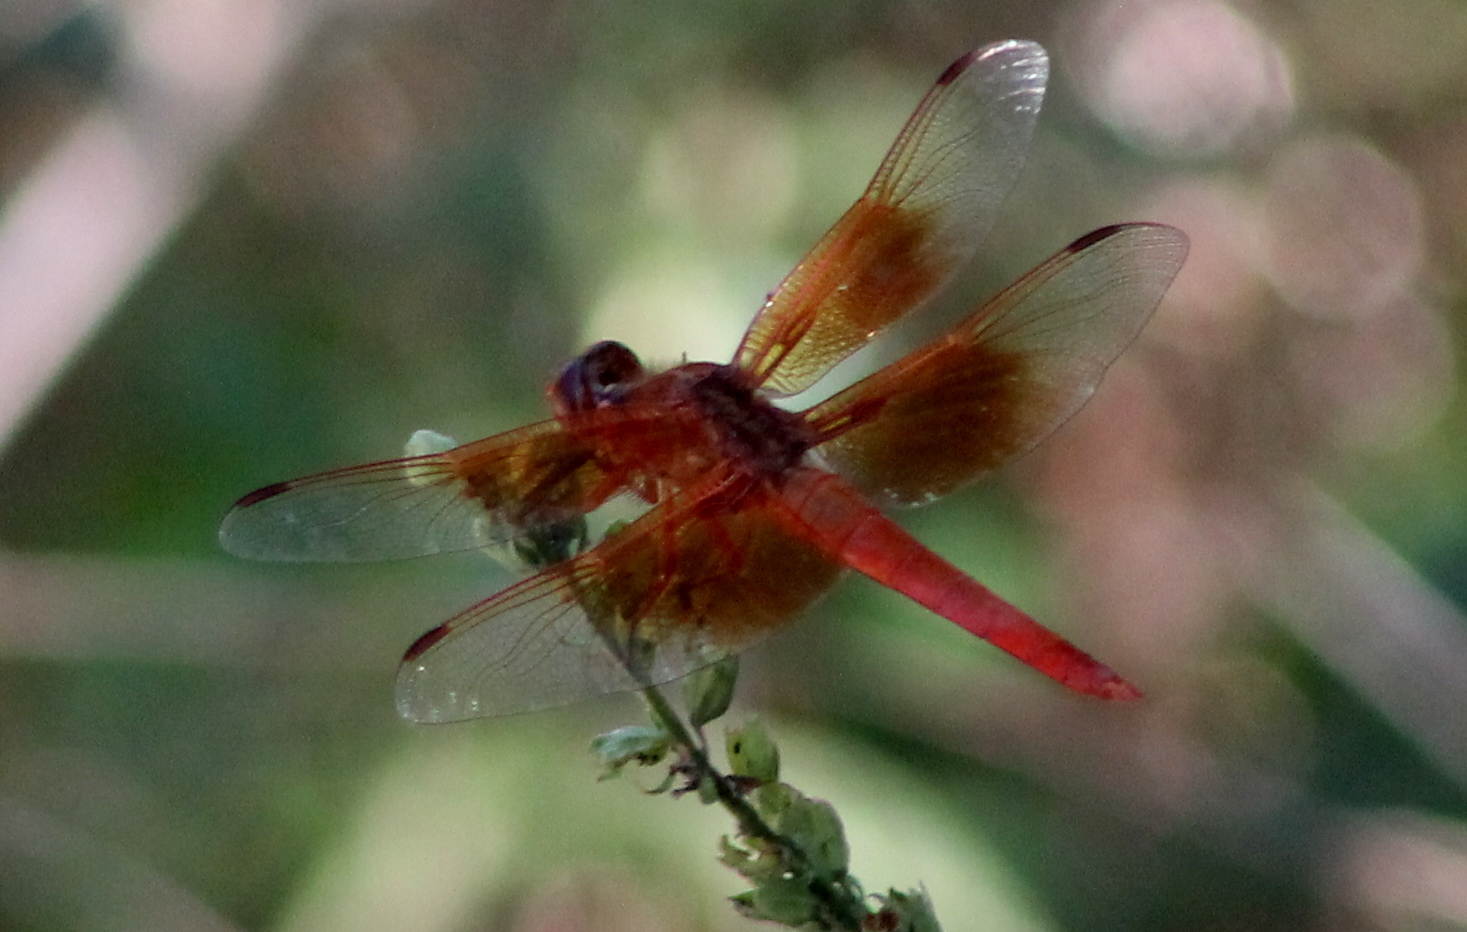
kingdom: Animalia
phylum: Arthropoda
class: Insecta
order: Odonata
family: Libellulidae
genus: Libellula
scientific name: Libellula saturata
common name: Flame skimmer
